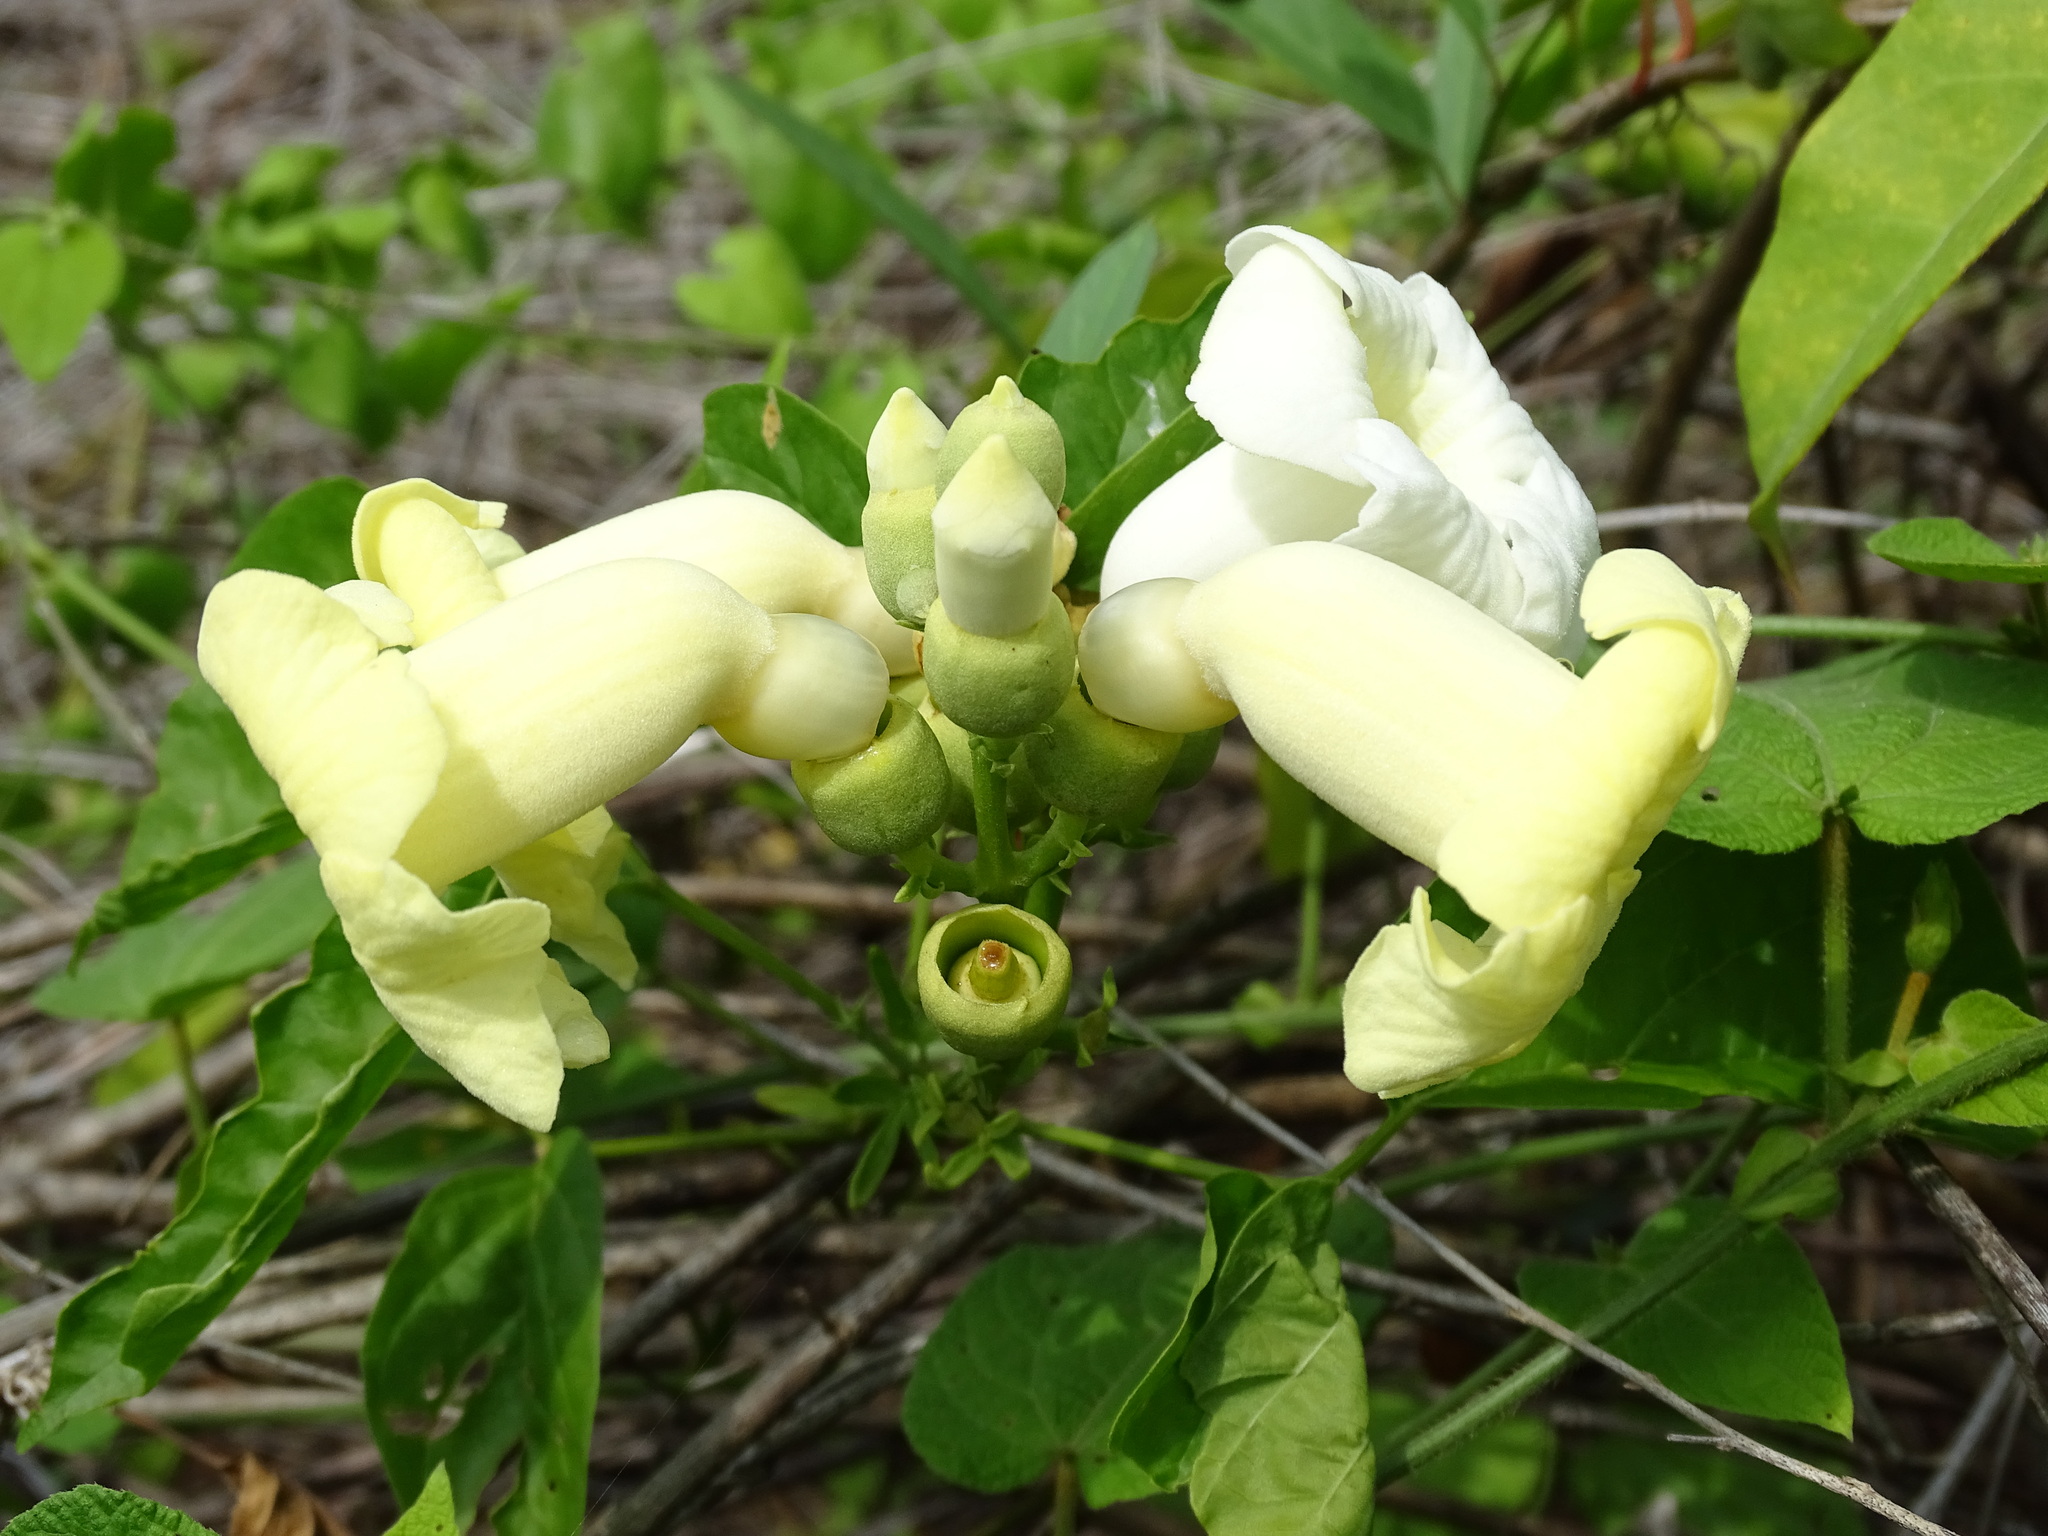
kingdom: Plantae
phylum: Tracheophyta
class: Magnoliopsida
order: Lamiales
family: Bignoniaceae
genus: Amphilophium
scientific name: Amphilophium crucigerum
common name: Monkey comb
